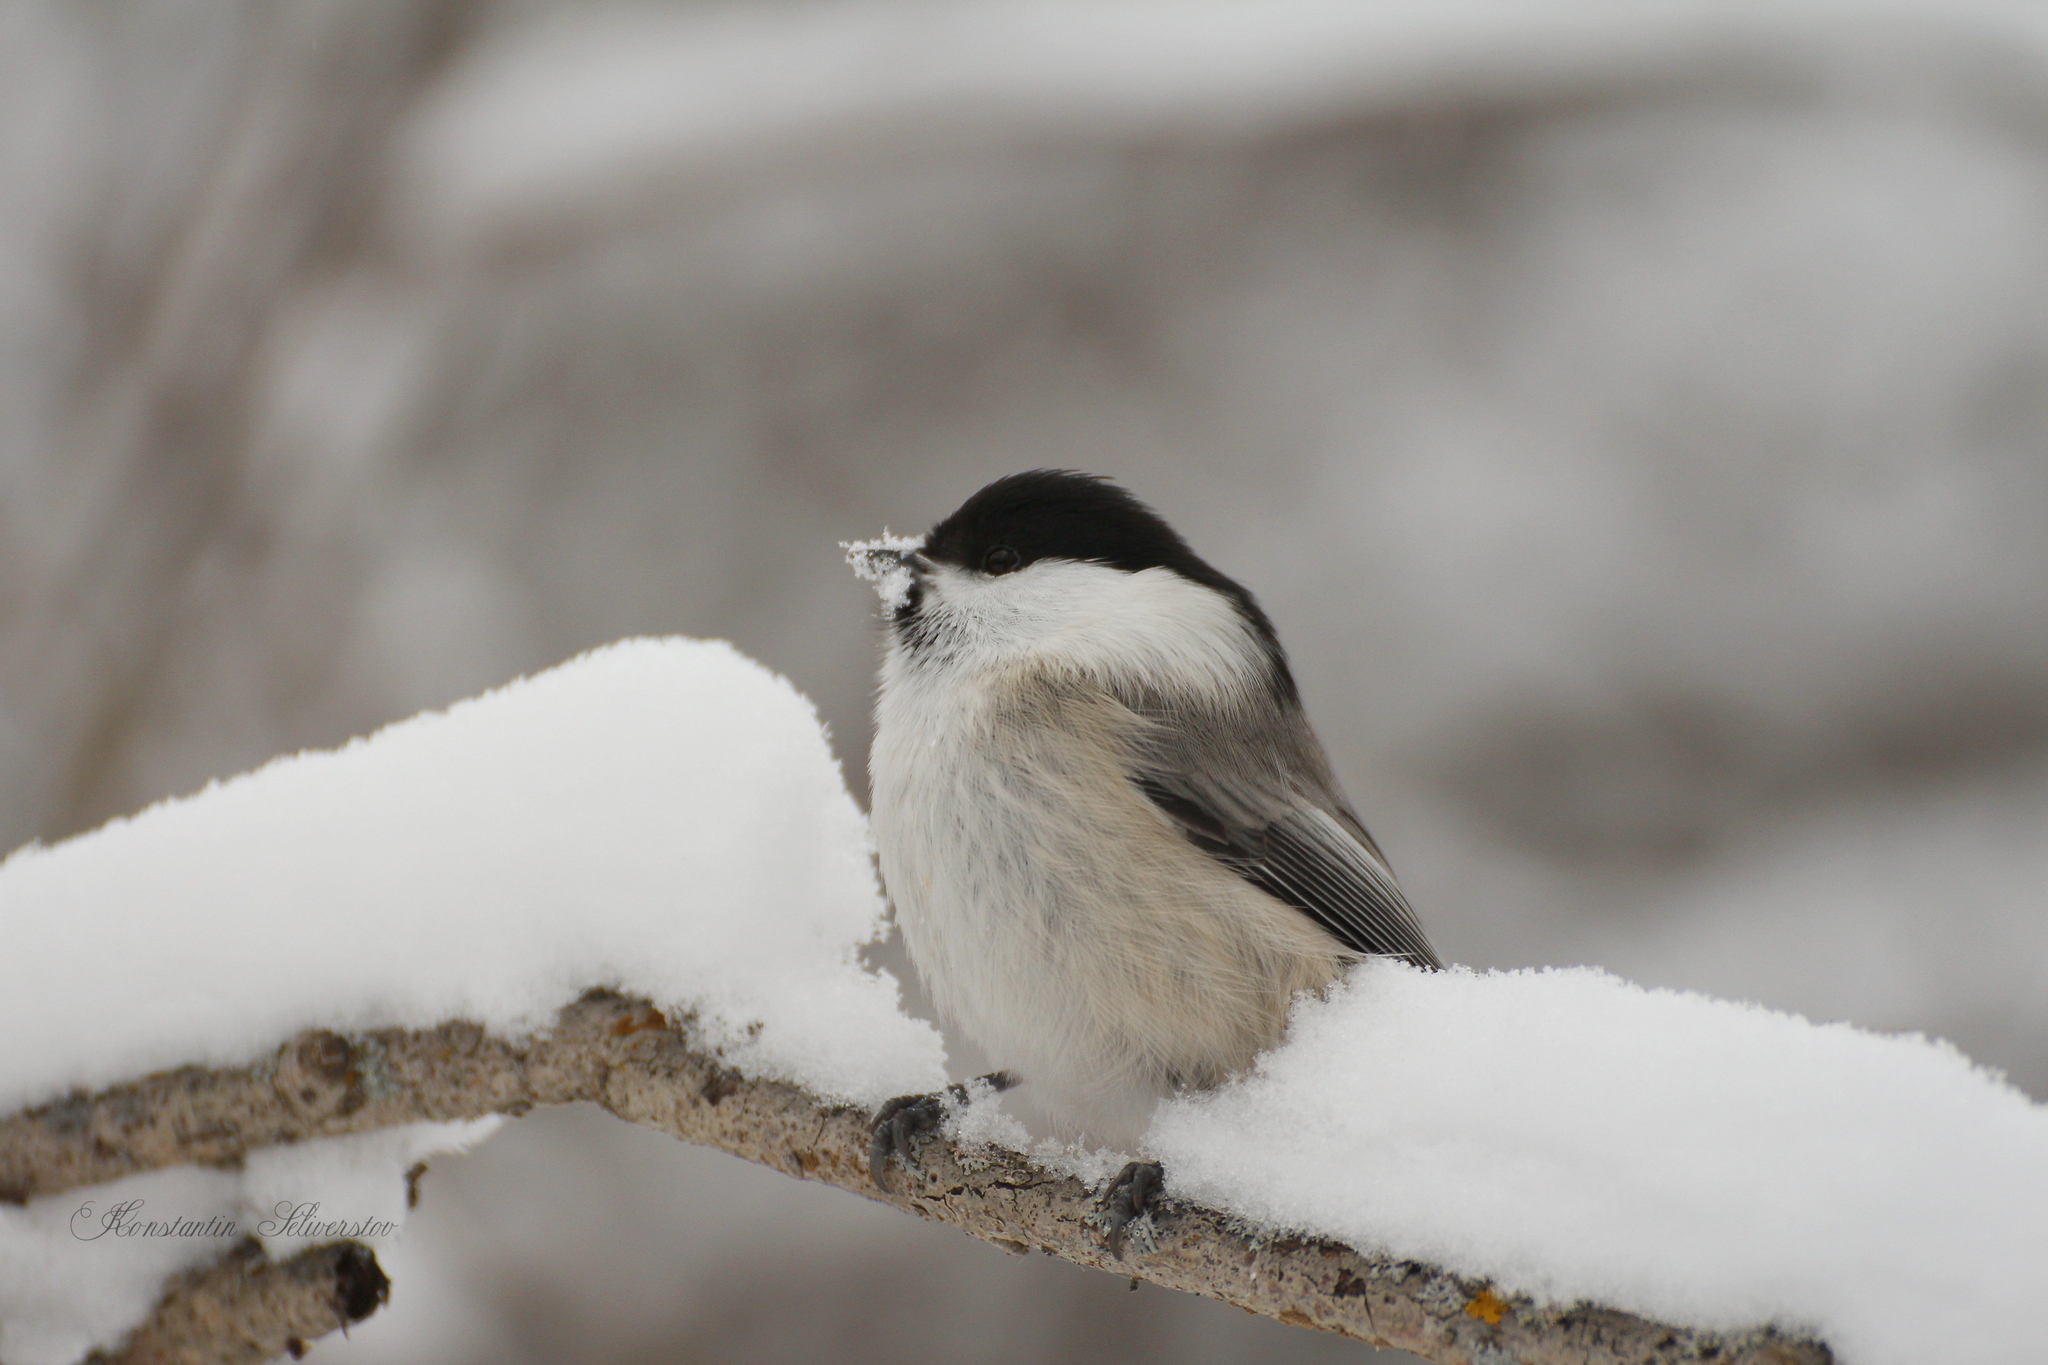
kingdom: Animalia
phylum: Chordata
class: Aves
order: Passeriformes
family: Paridae
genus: Poecile
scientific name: Poecile montanus
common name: Willow tit
